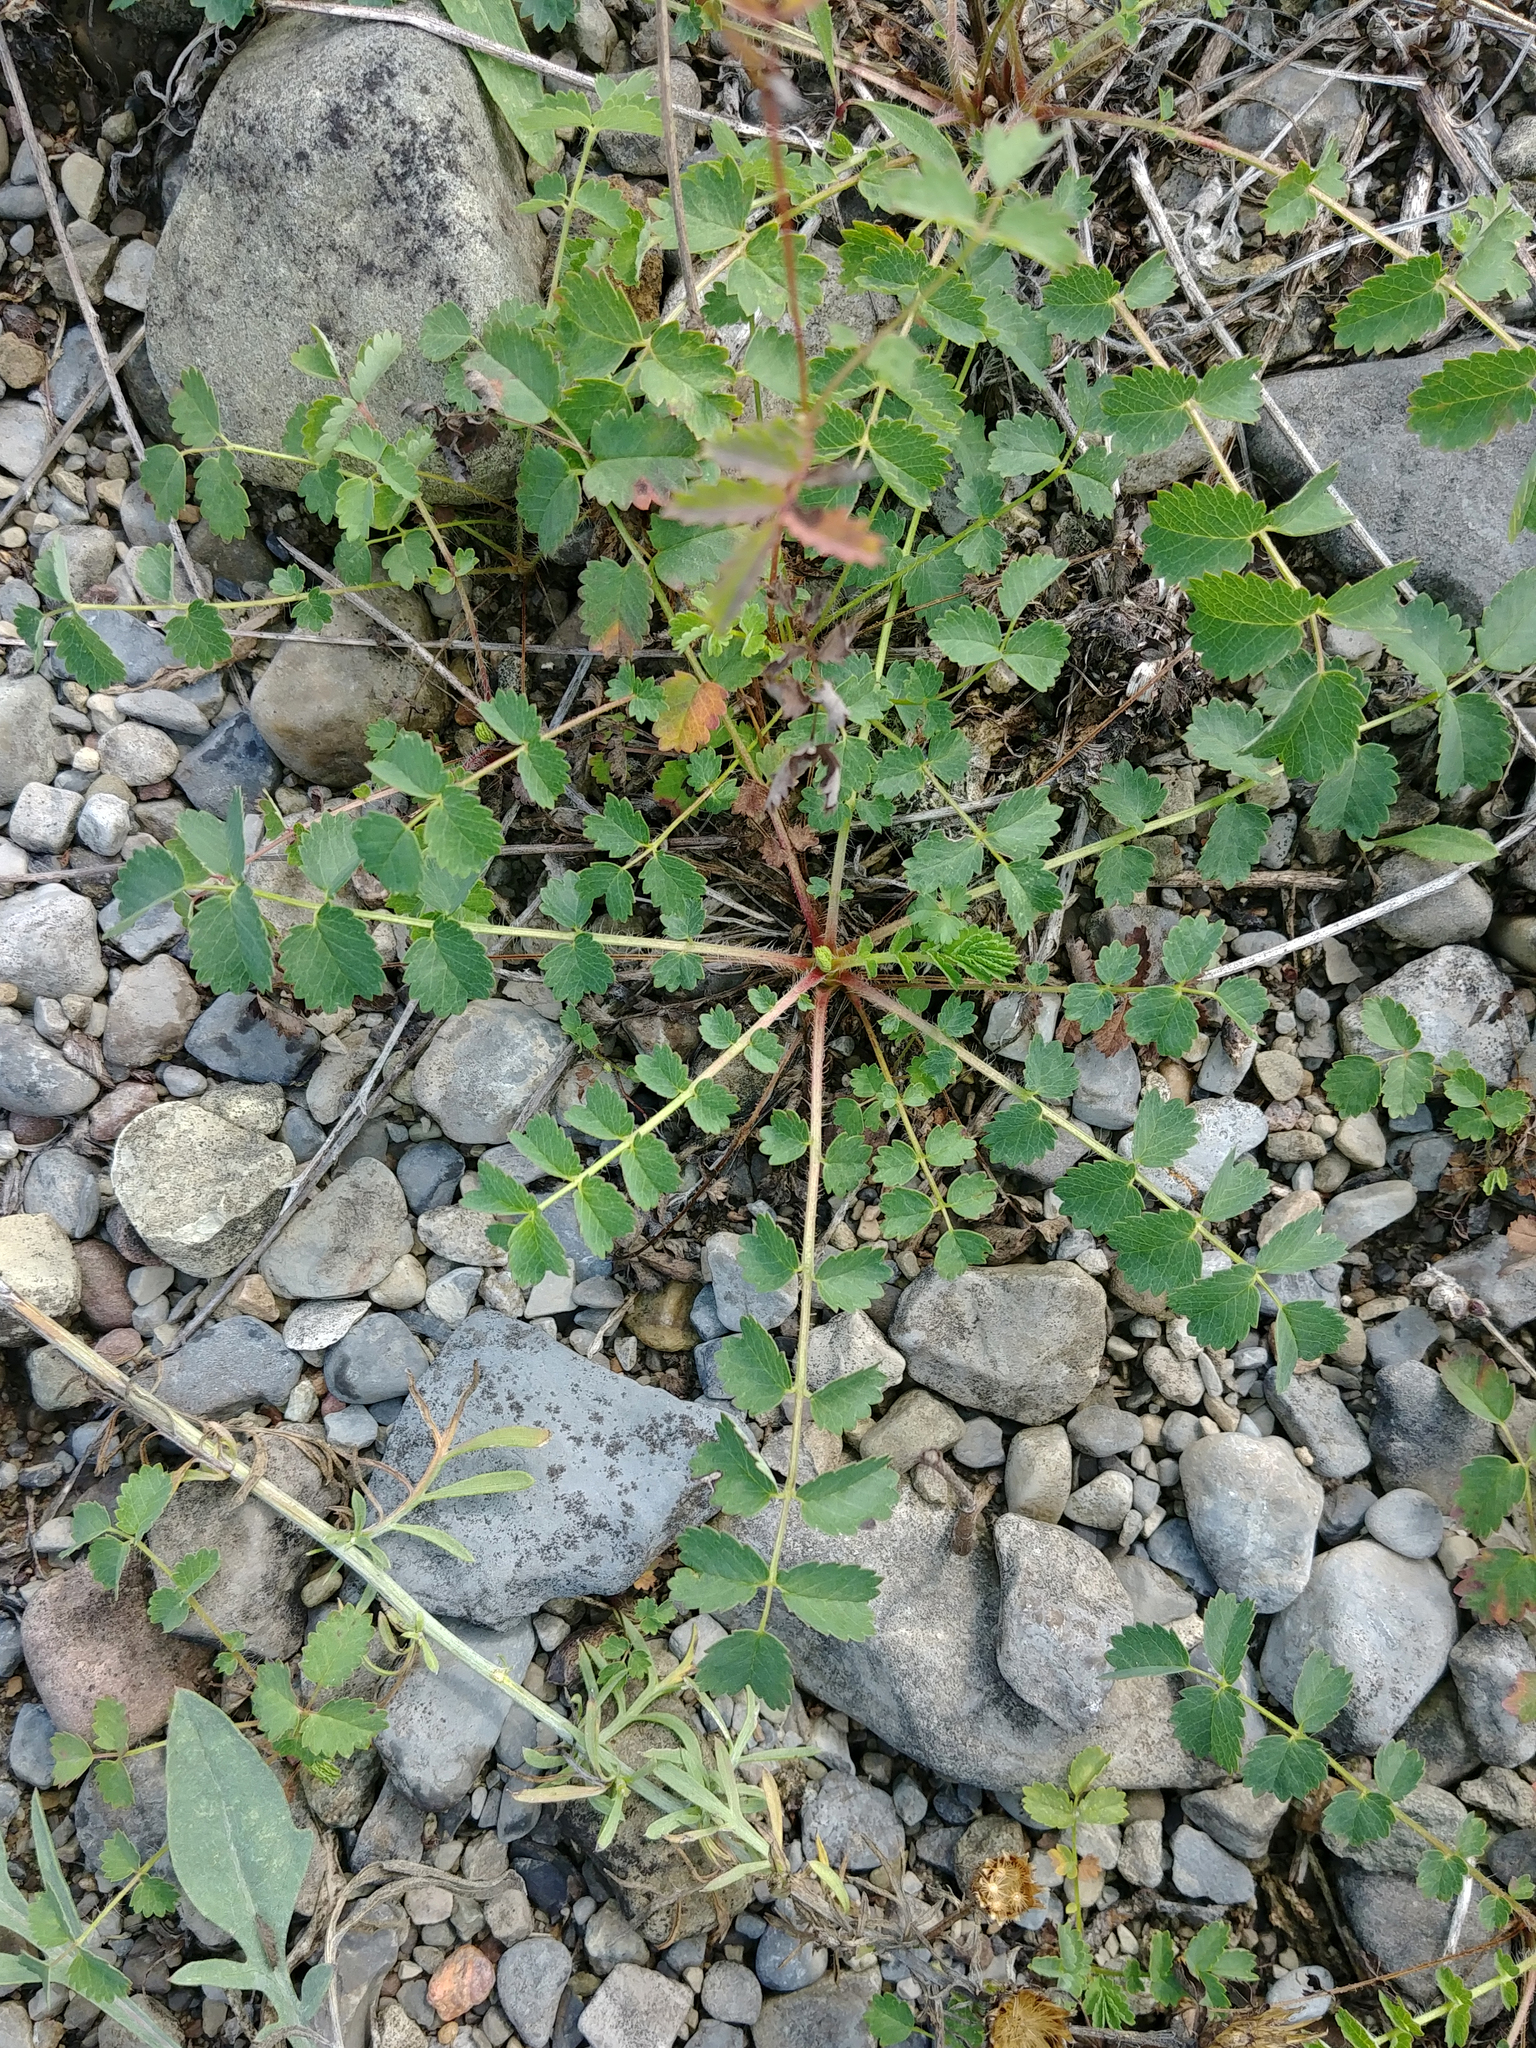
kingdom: Plantae
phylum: Tracheophyta
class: Magnoliopsida
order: Rosales
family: Rosaceae
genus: Poterium
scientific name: Poterium sanguisorba
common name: Salad burnet
